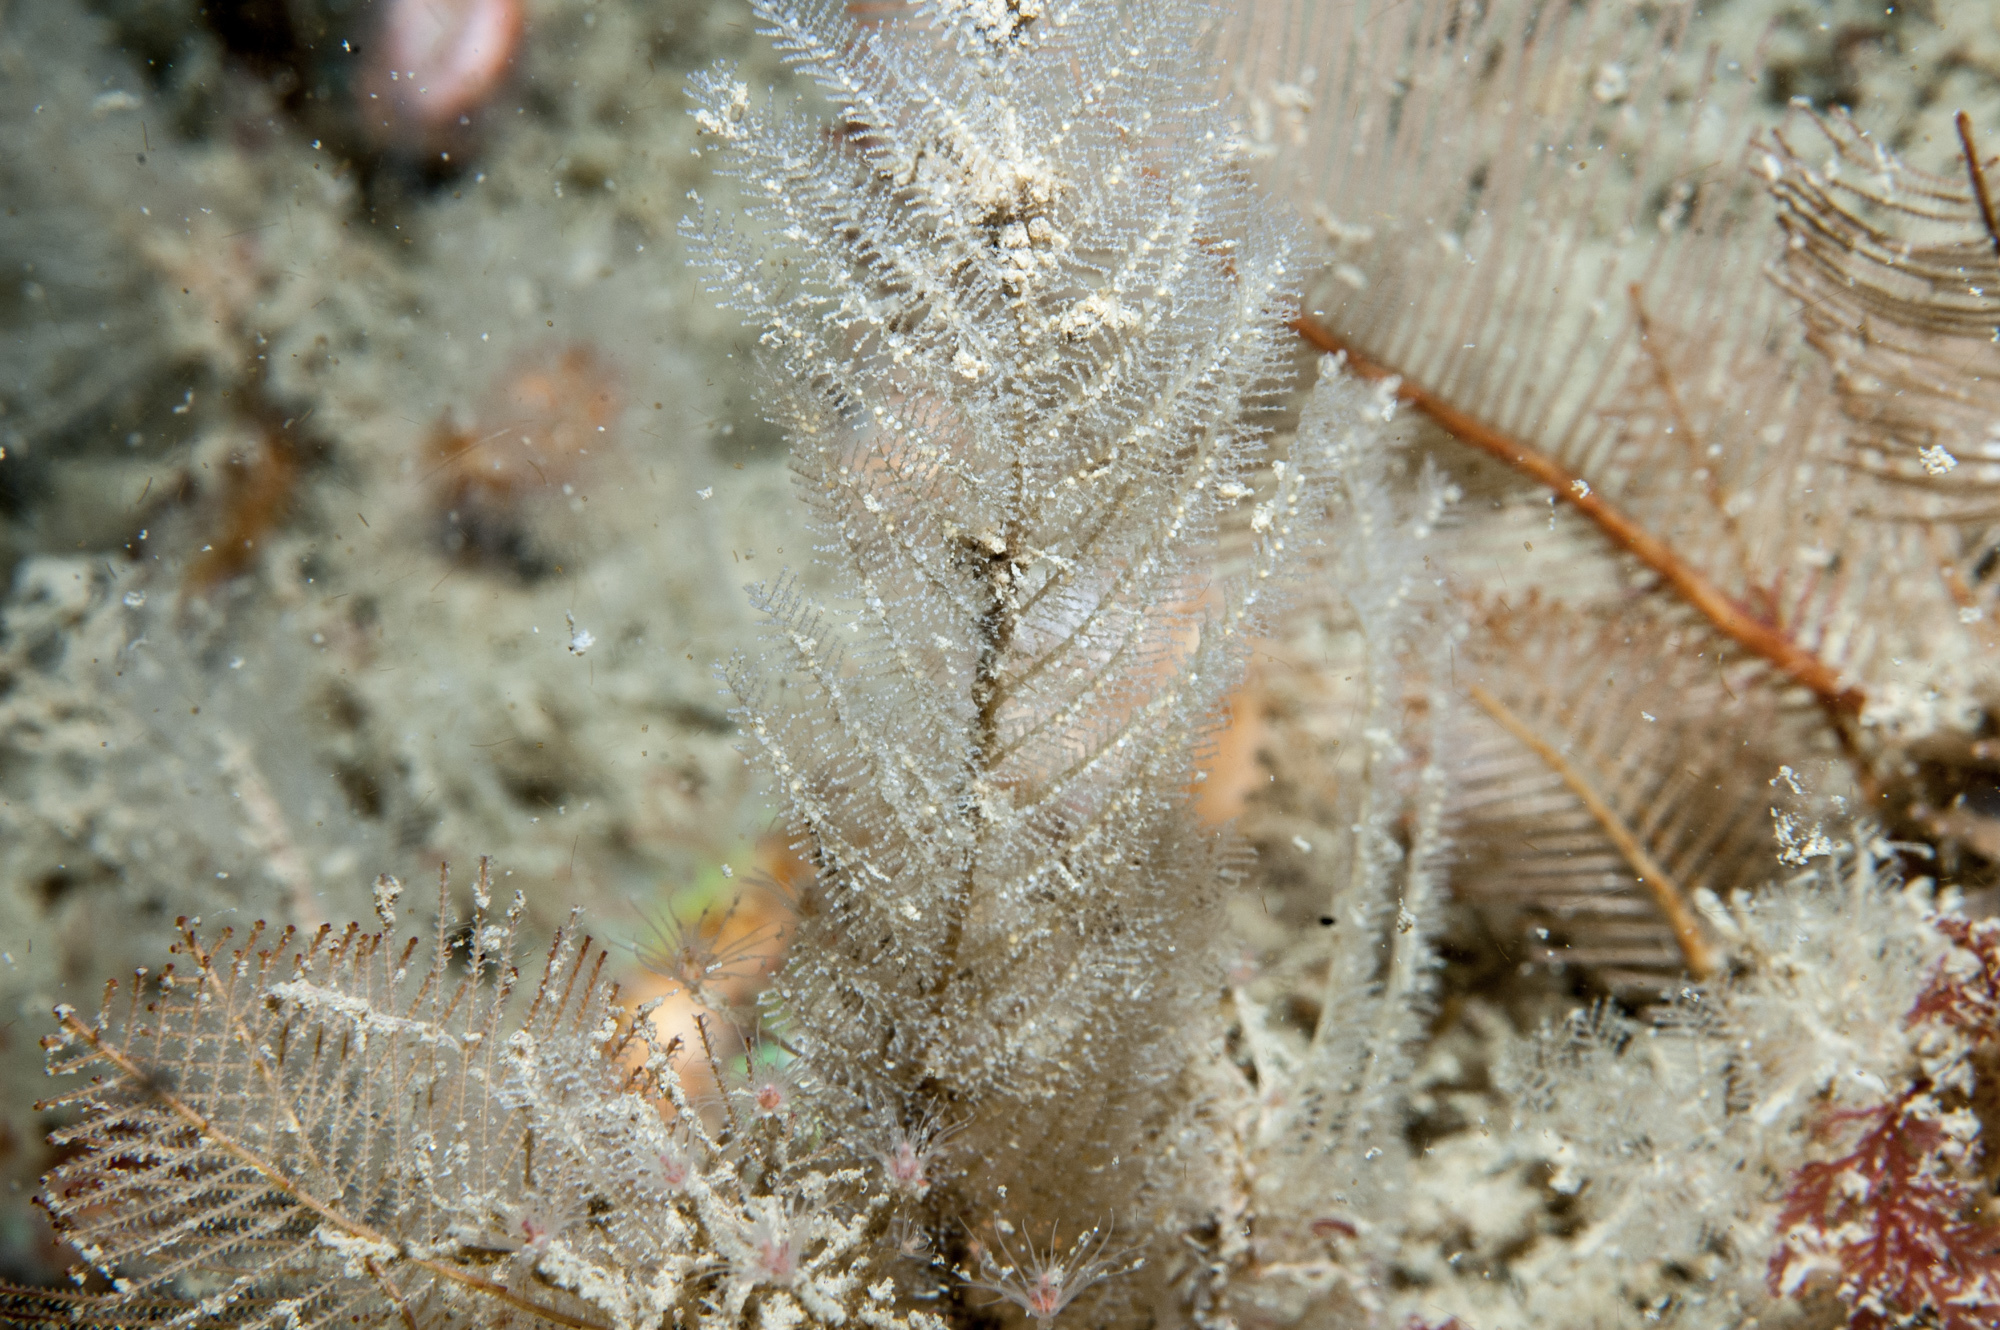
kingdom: Animalia
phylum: Cnidaria
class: Hydrozoa
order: Leptothecata
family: Sertulariidae
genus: Diphasia
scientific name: Diphasia alata
